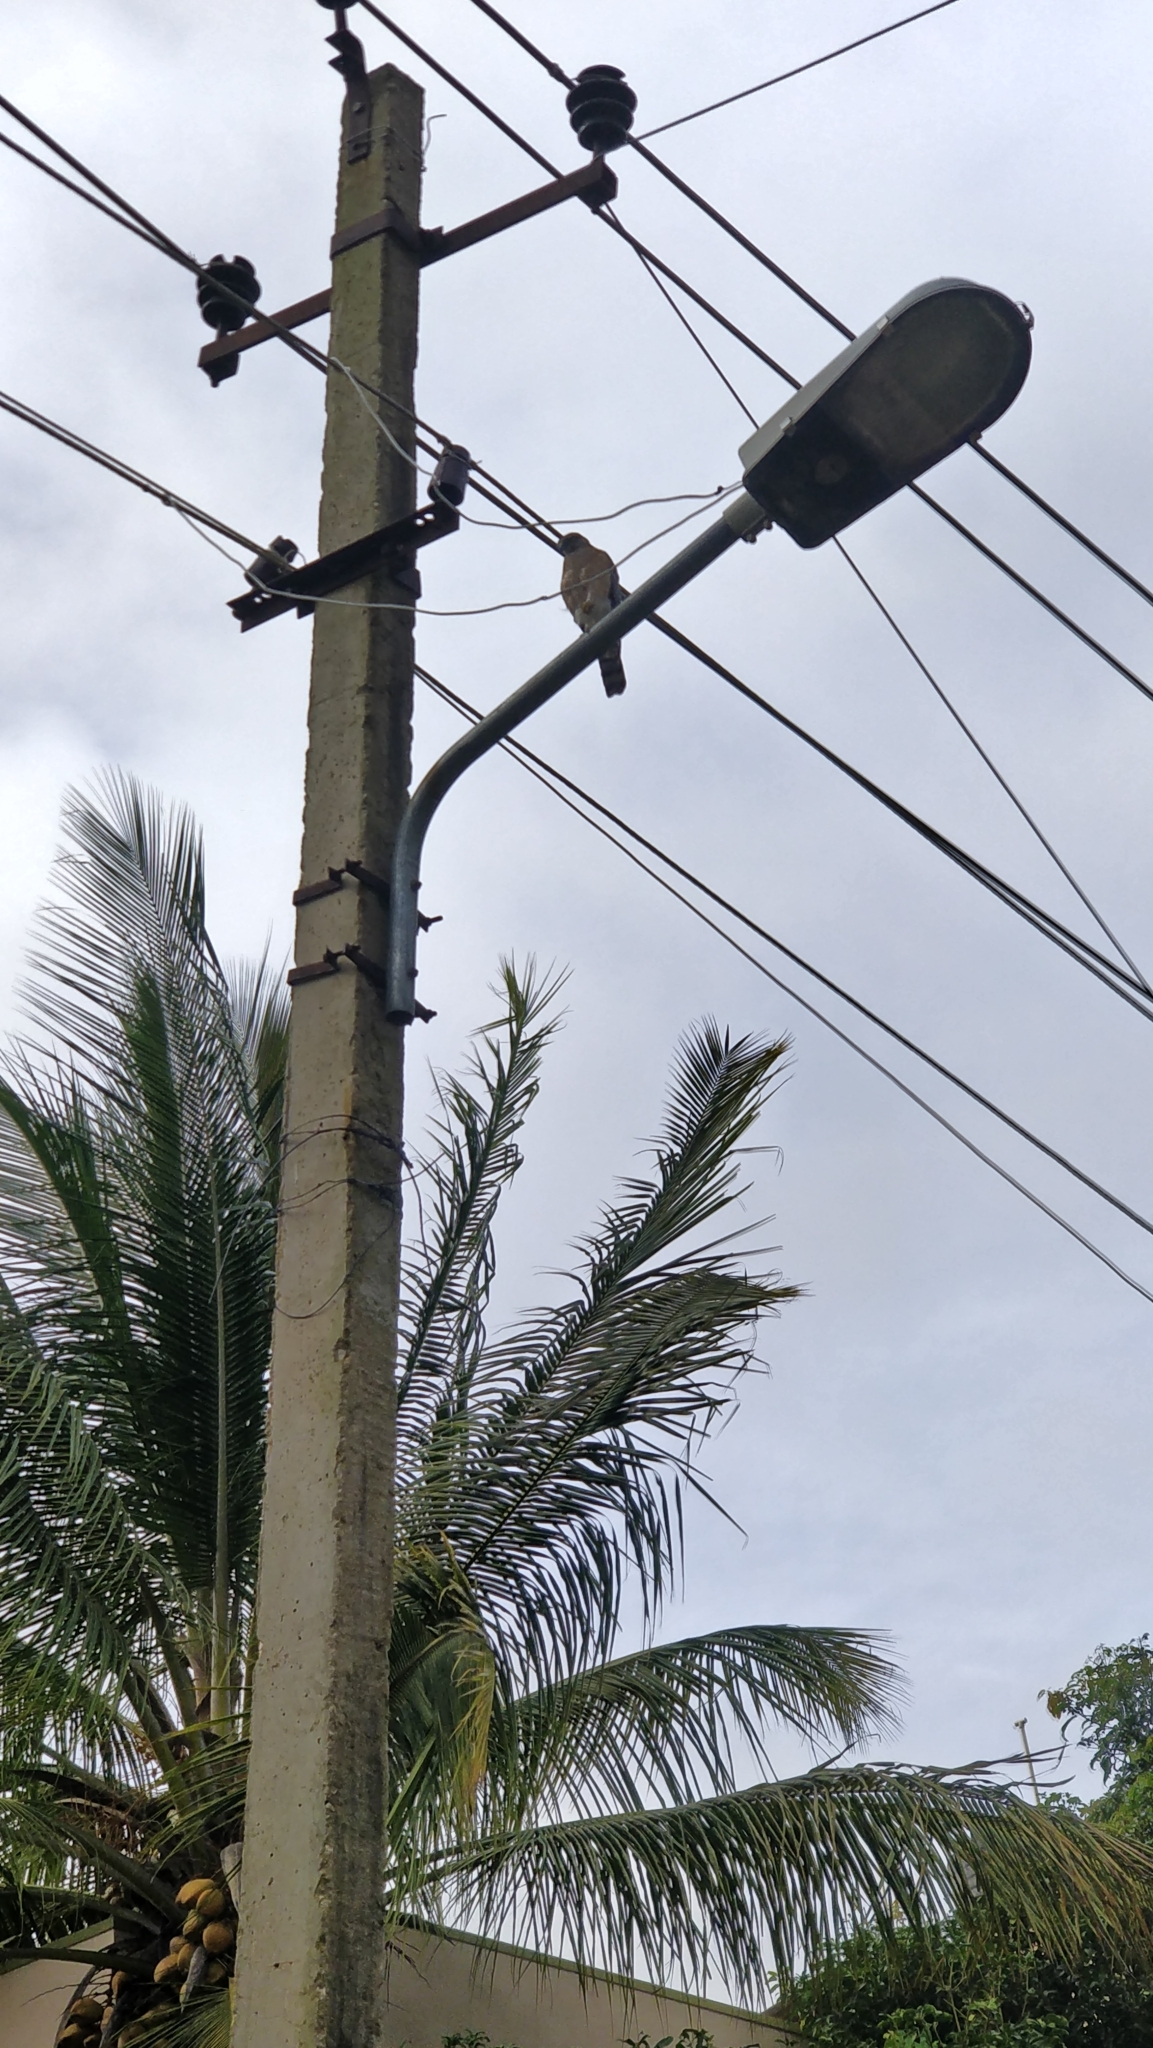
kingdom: Animalia
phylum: Chordata
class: Aves
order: Accipitriformes
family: Accipitridae
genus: Accipiter
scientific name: Accipiter badius
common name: Shikra
